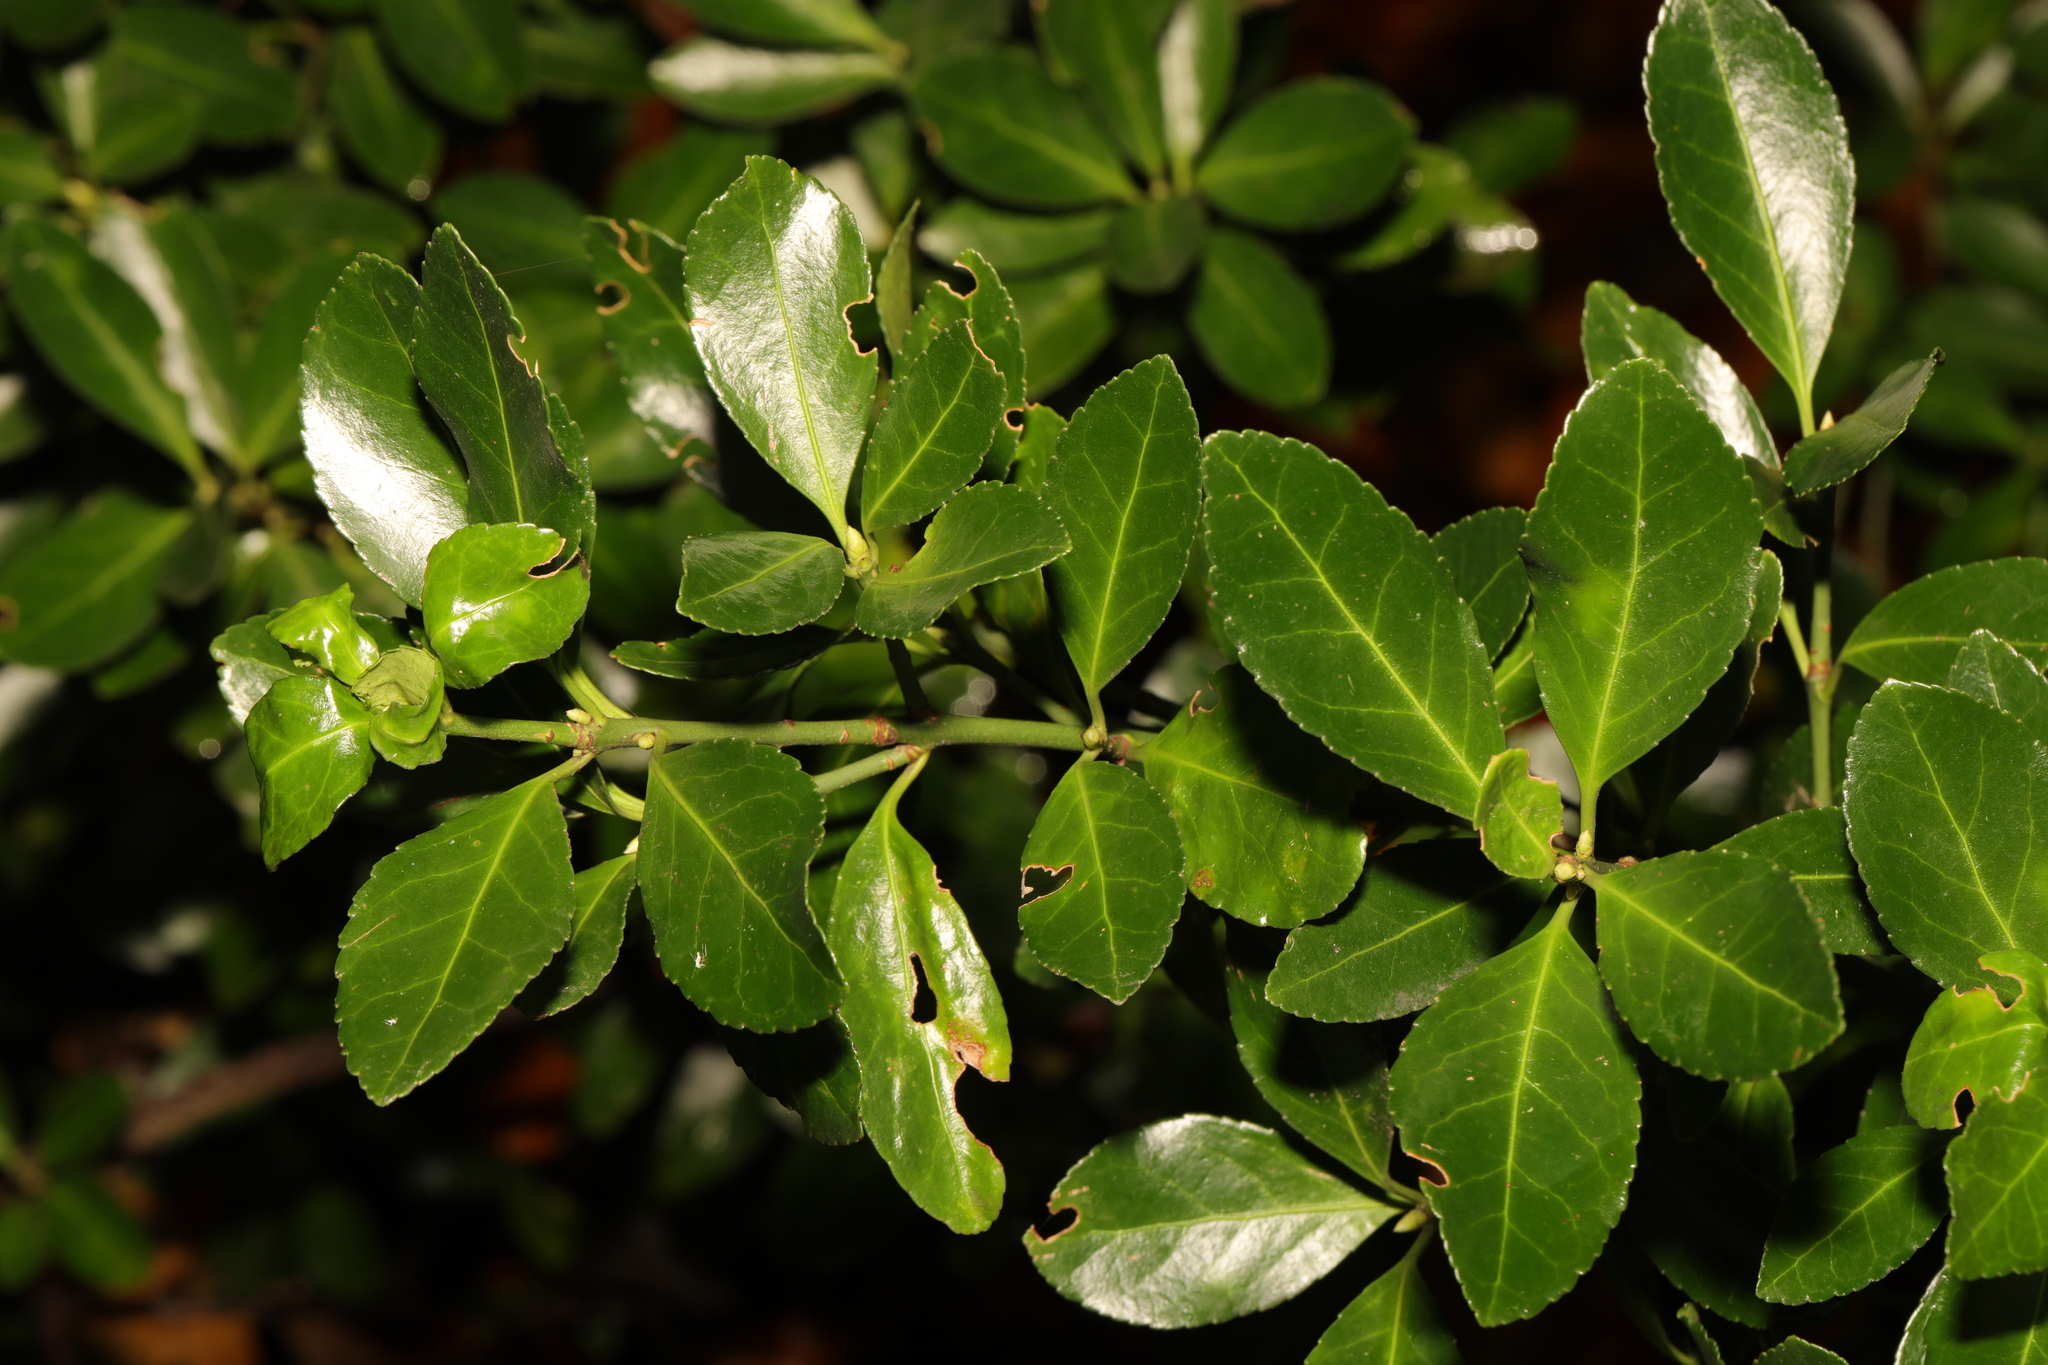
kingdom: Plantae
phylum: Tracheophyta
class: Magnoliopsida
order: Celastrales
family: Celastraceae
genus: Euonymus
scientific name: Euonymus japonicus
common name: Japanese spindletree
